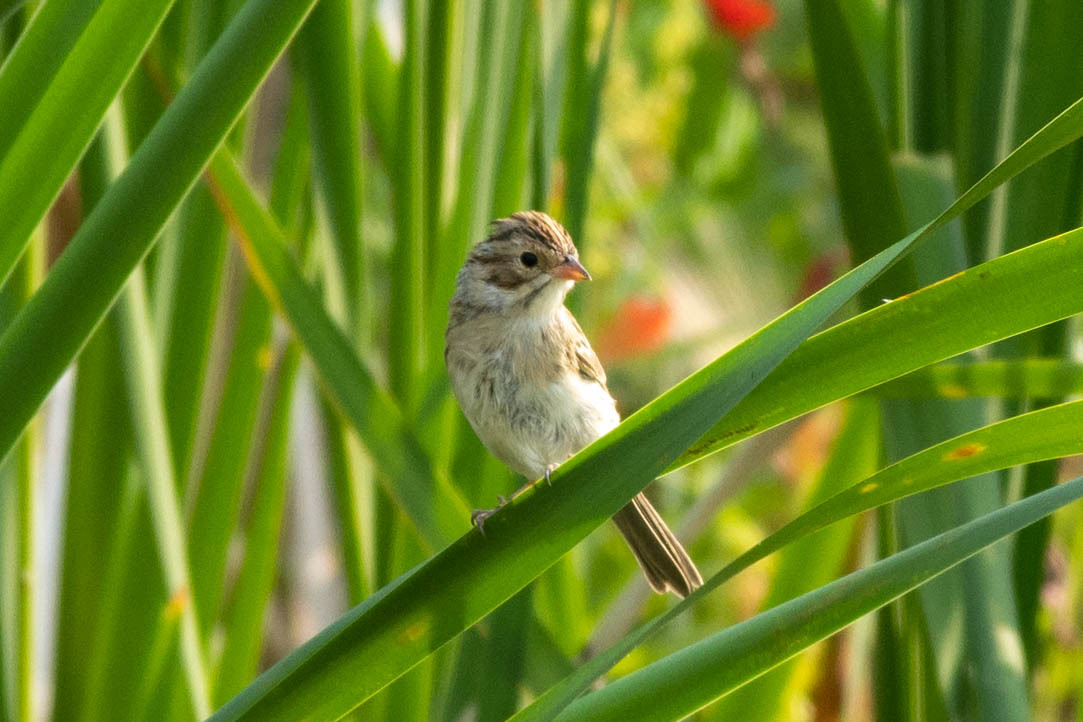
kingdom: Animalia
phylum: Chordata
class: Aves
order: Passeriformes
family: Passerellidae
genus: Spizella
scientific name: Spizella pallida
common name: Clay-colored sparrow
